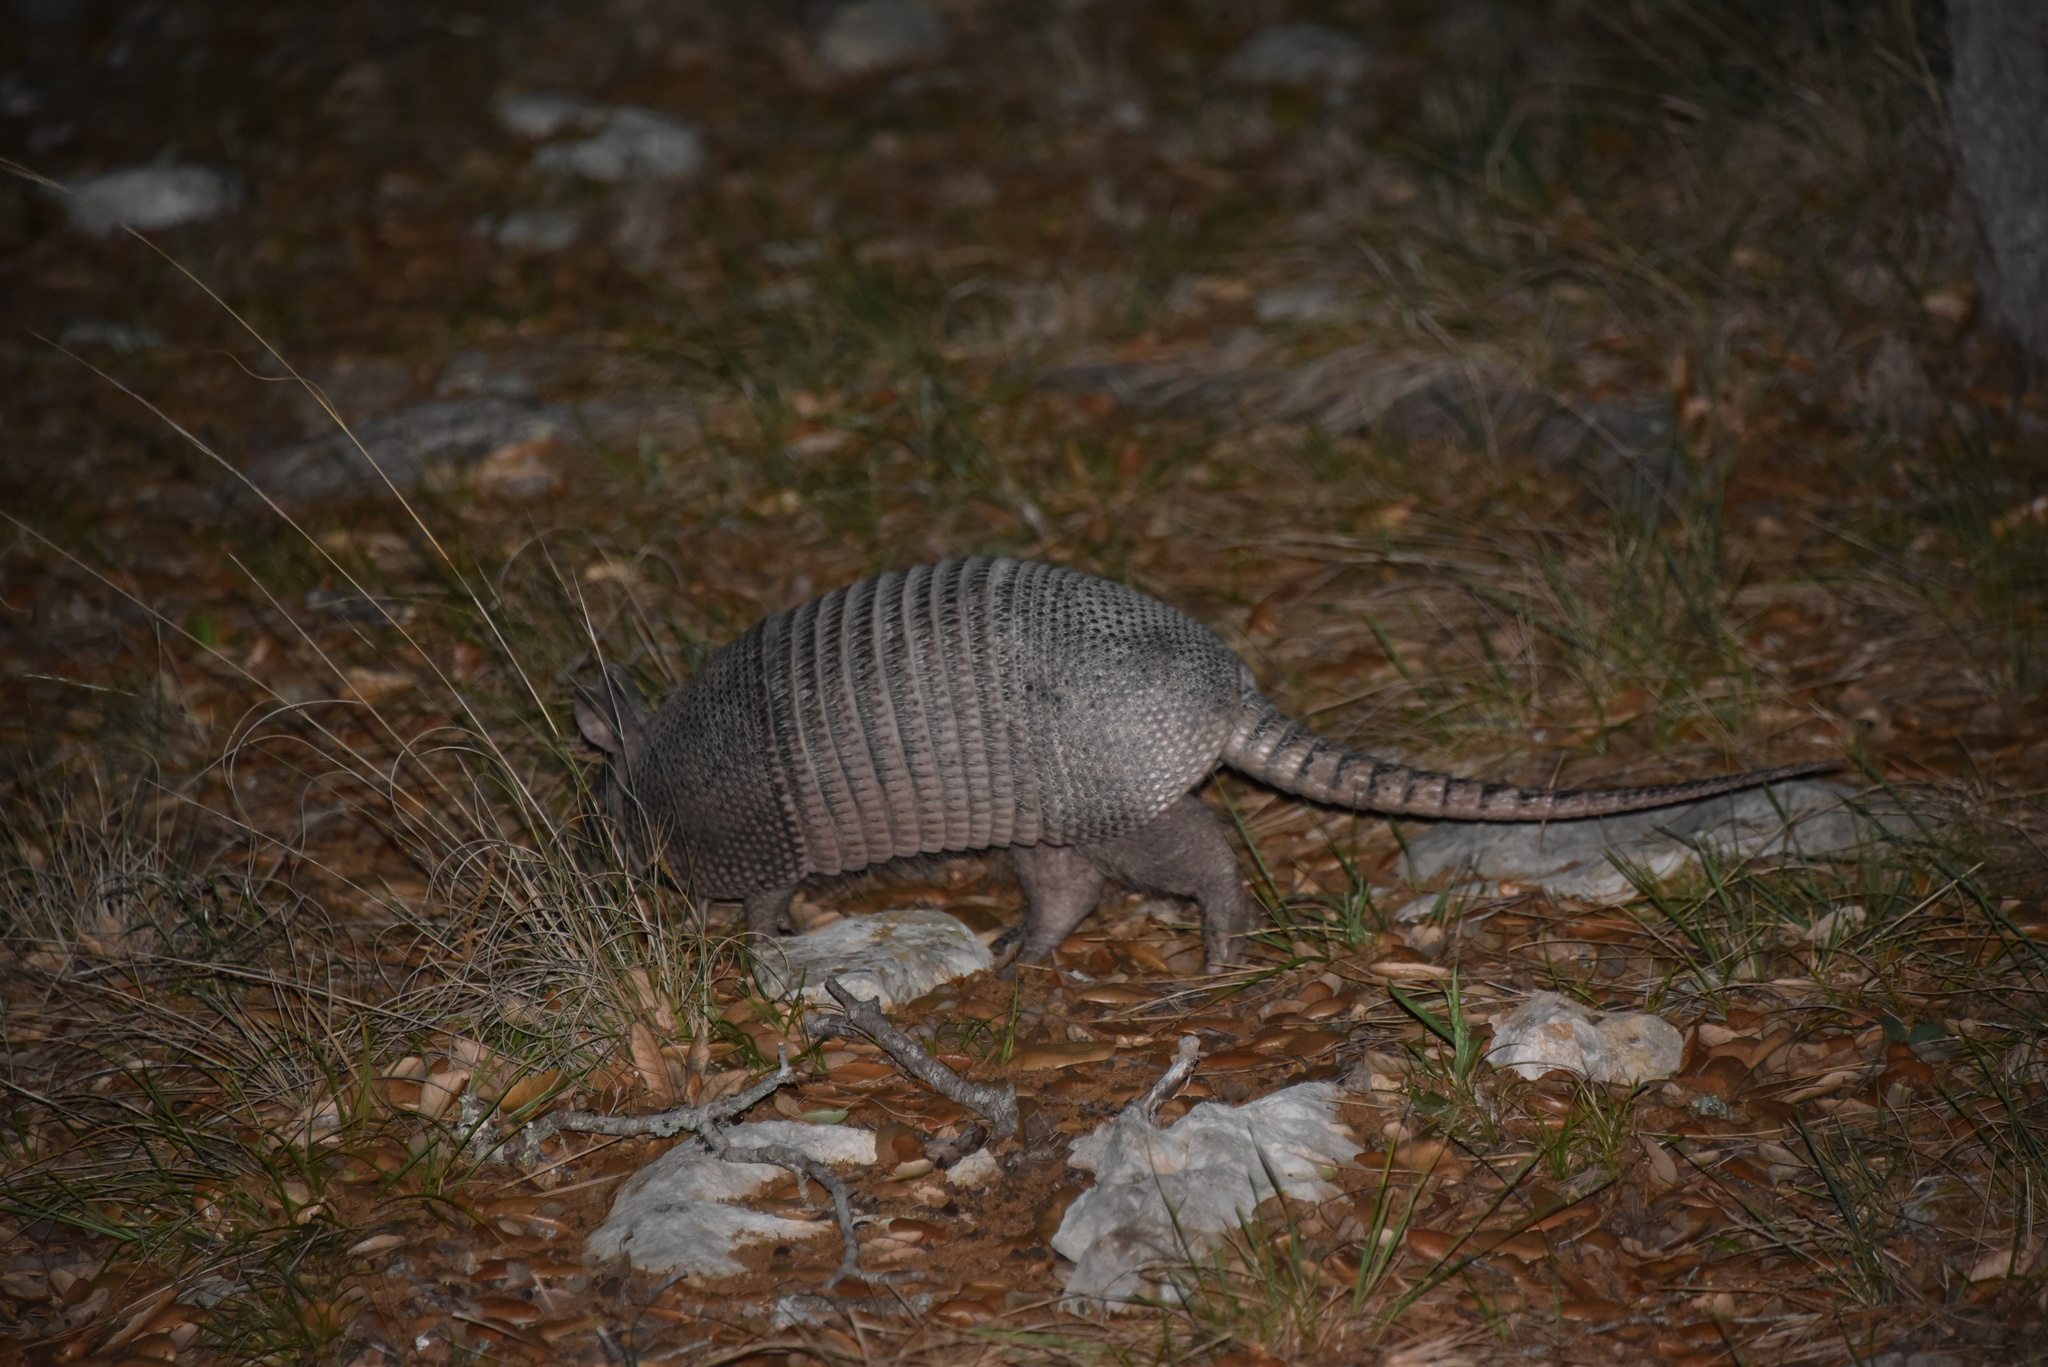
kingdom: Animalia
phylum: Chordata
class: Mammalia
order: Cingulata
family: Dasypodidae
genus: Dasypus
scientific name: Dasypus novemcinctus
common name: Nine-banded armadillo
